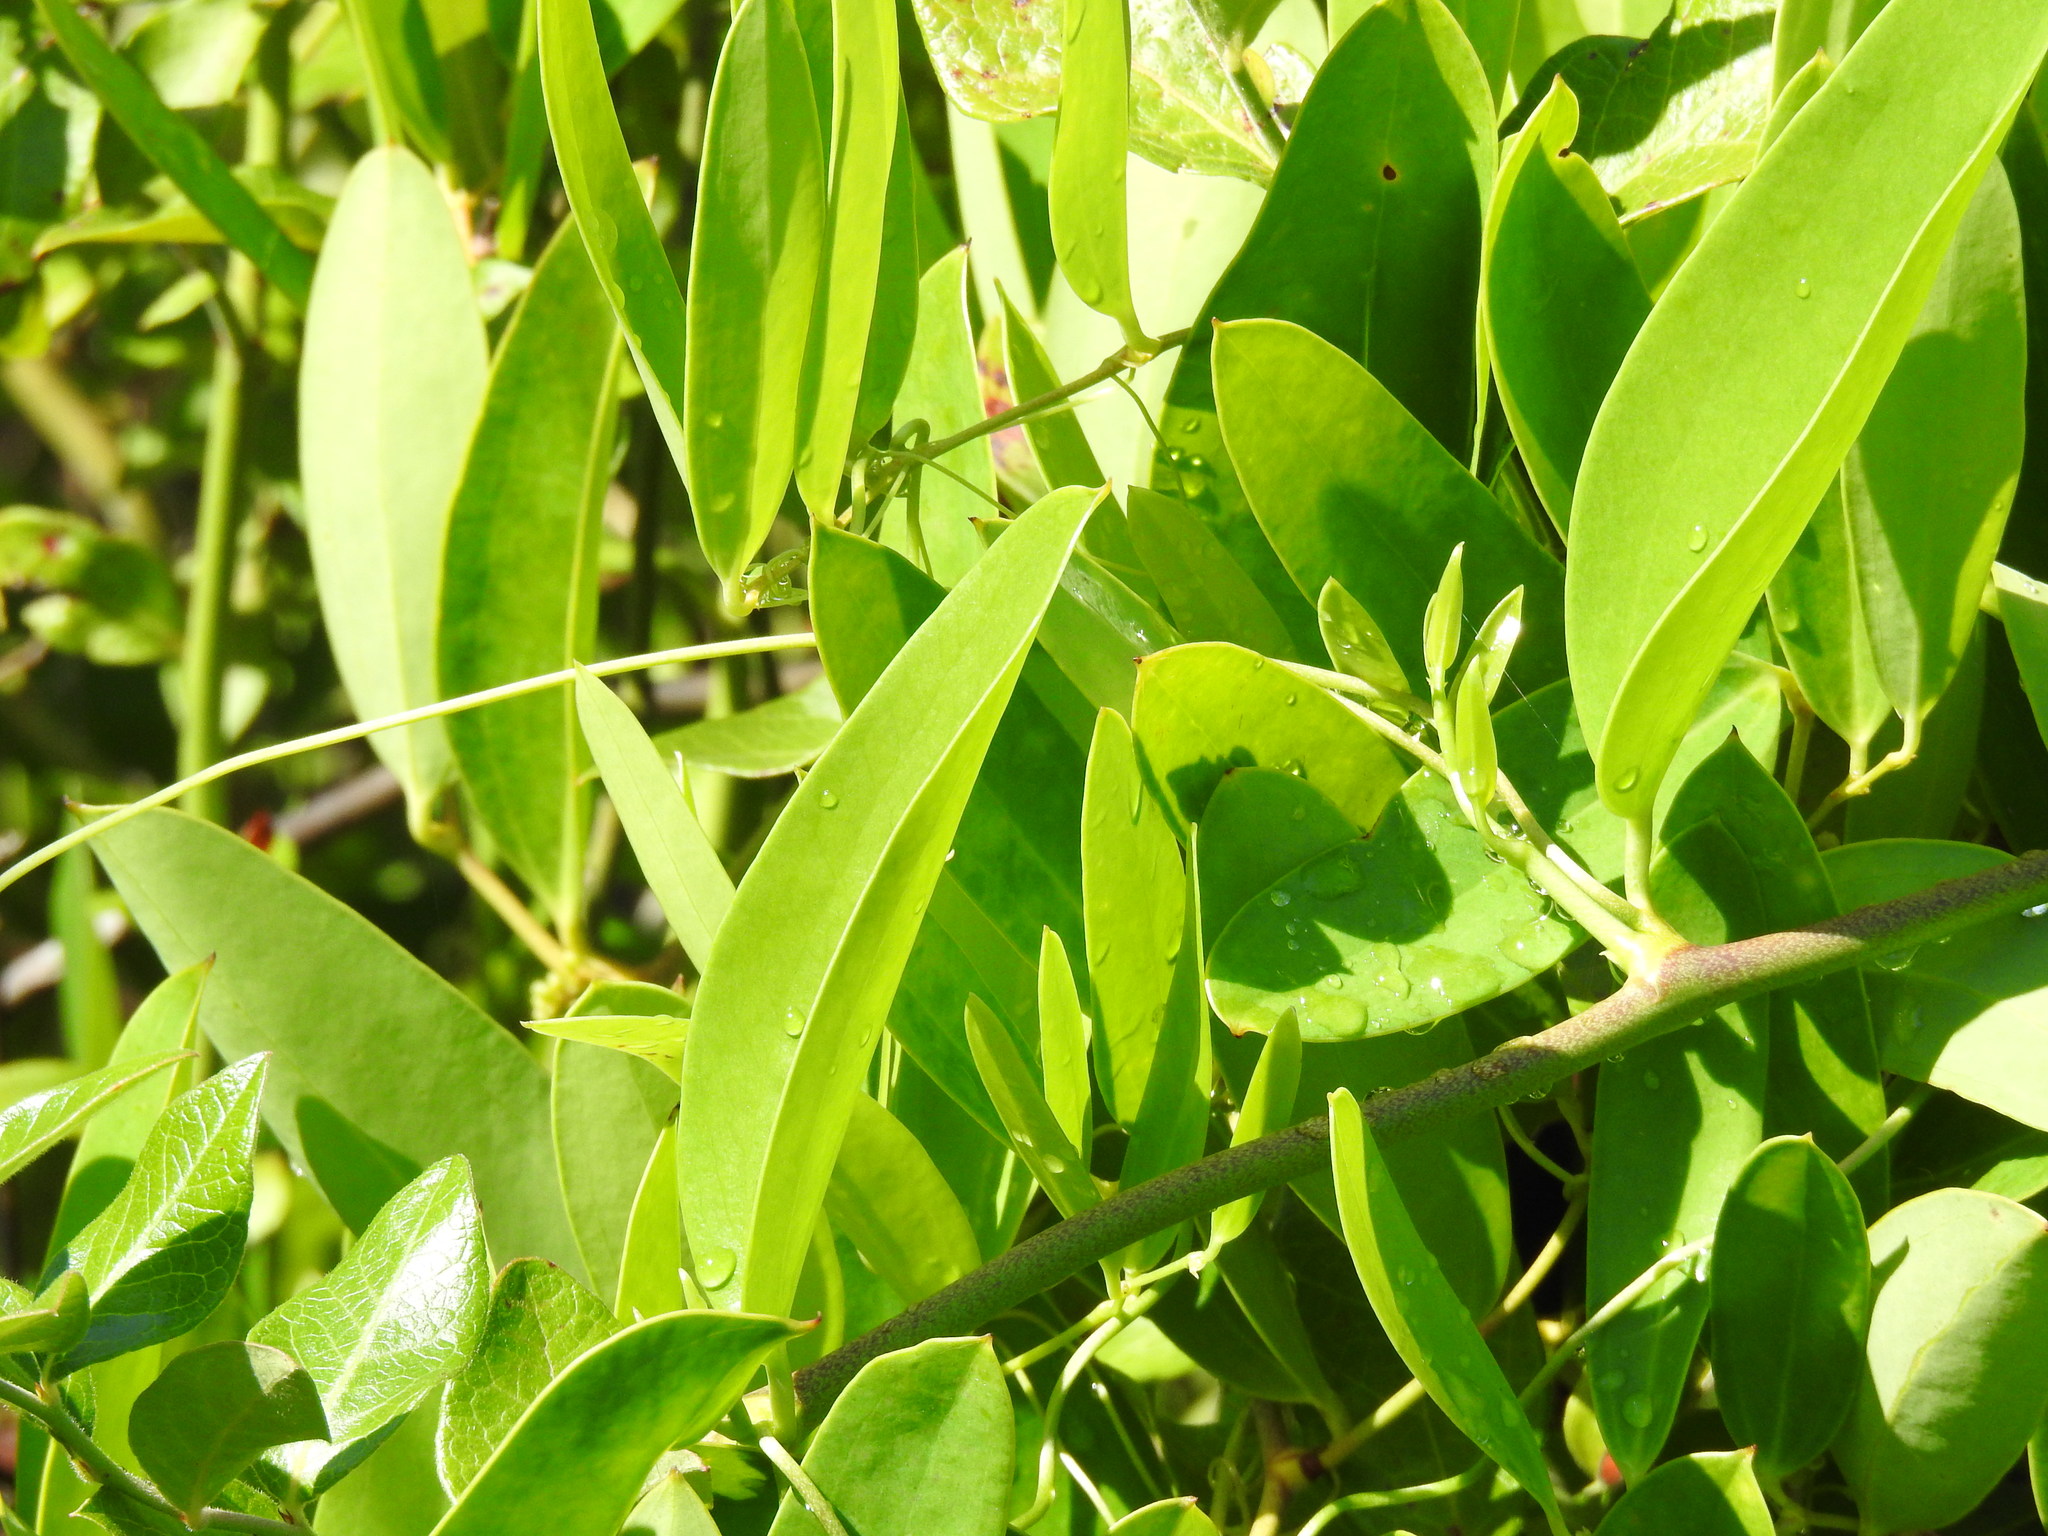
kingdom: Plantae
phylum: Tracheophyta
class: Liliopsida
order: Liliales
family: Smilacaceae
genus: Smilax
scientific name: Smilax laurifolia
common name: Bamboovine
